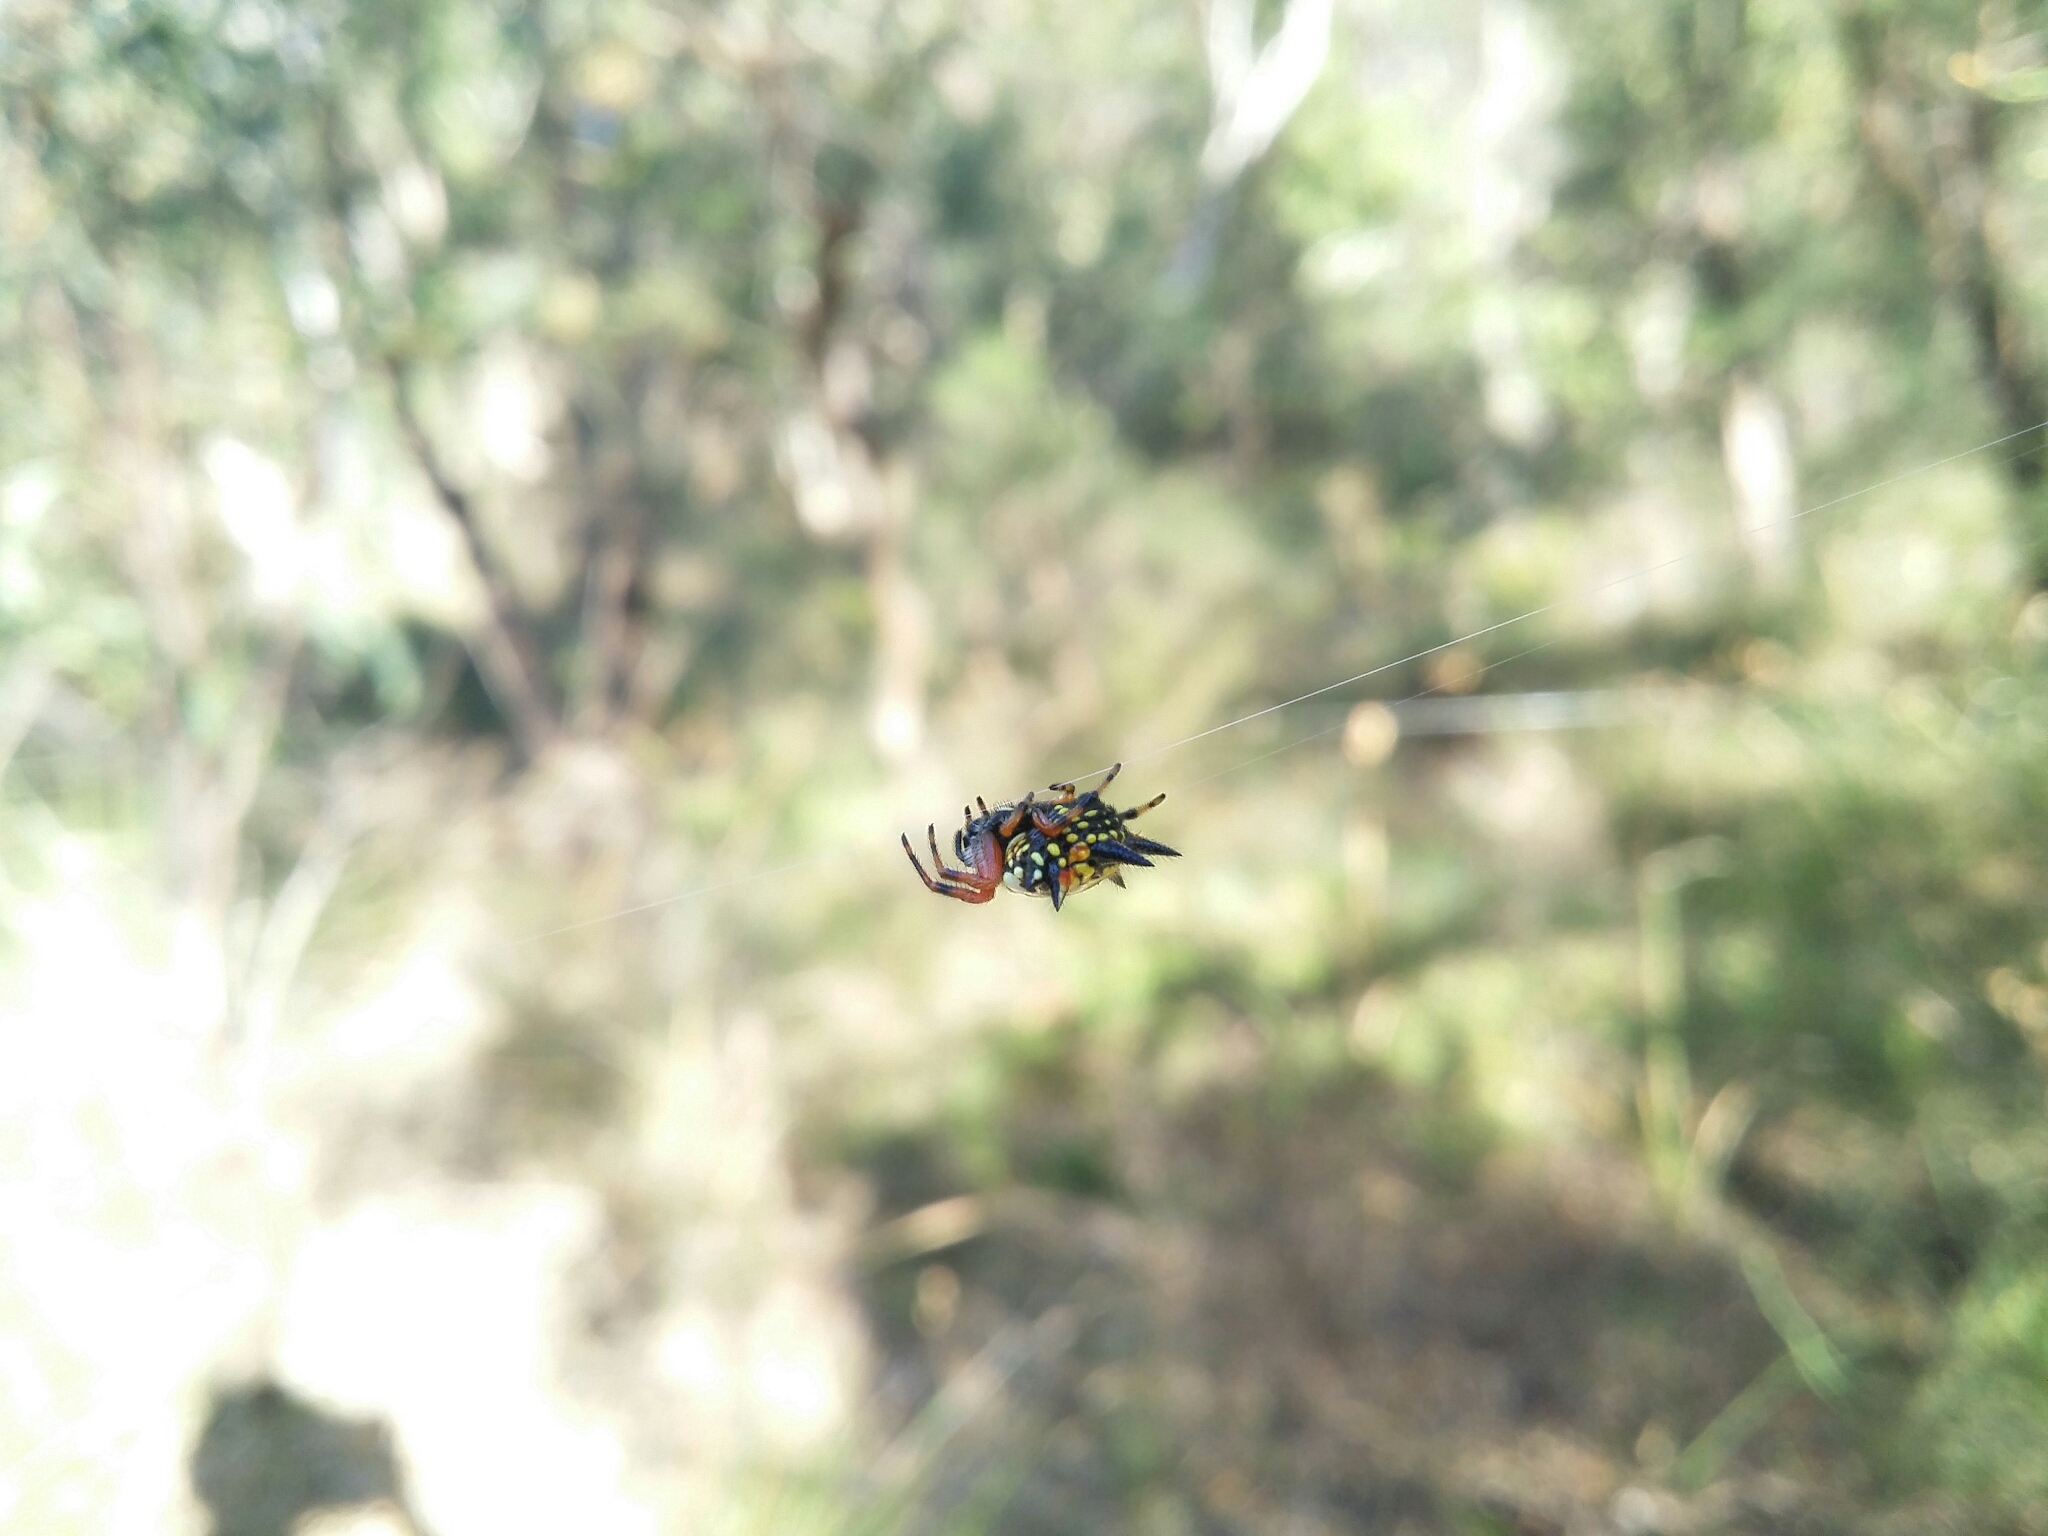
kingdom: Animalia
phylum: Arthropoda
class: Arachnida
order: Araneae
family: Araneidae
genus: Austracantha
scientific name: Austracantha minax
